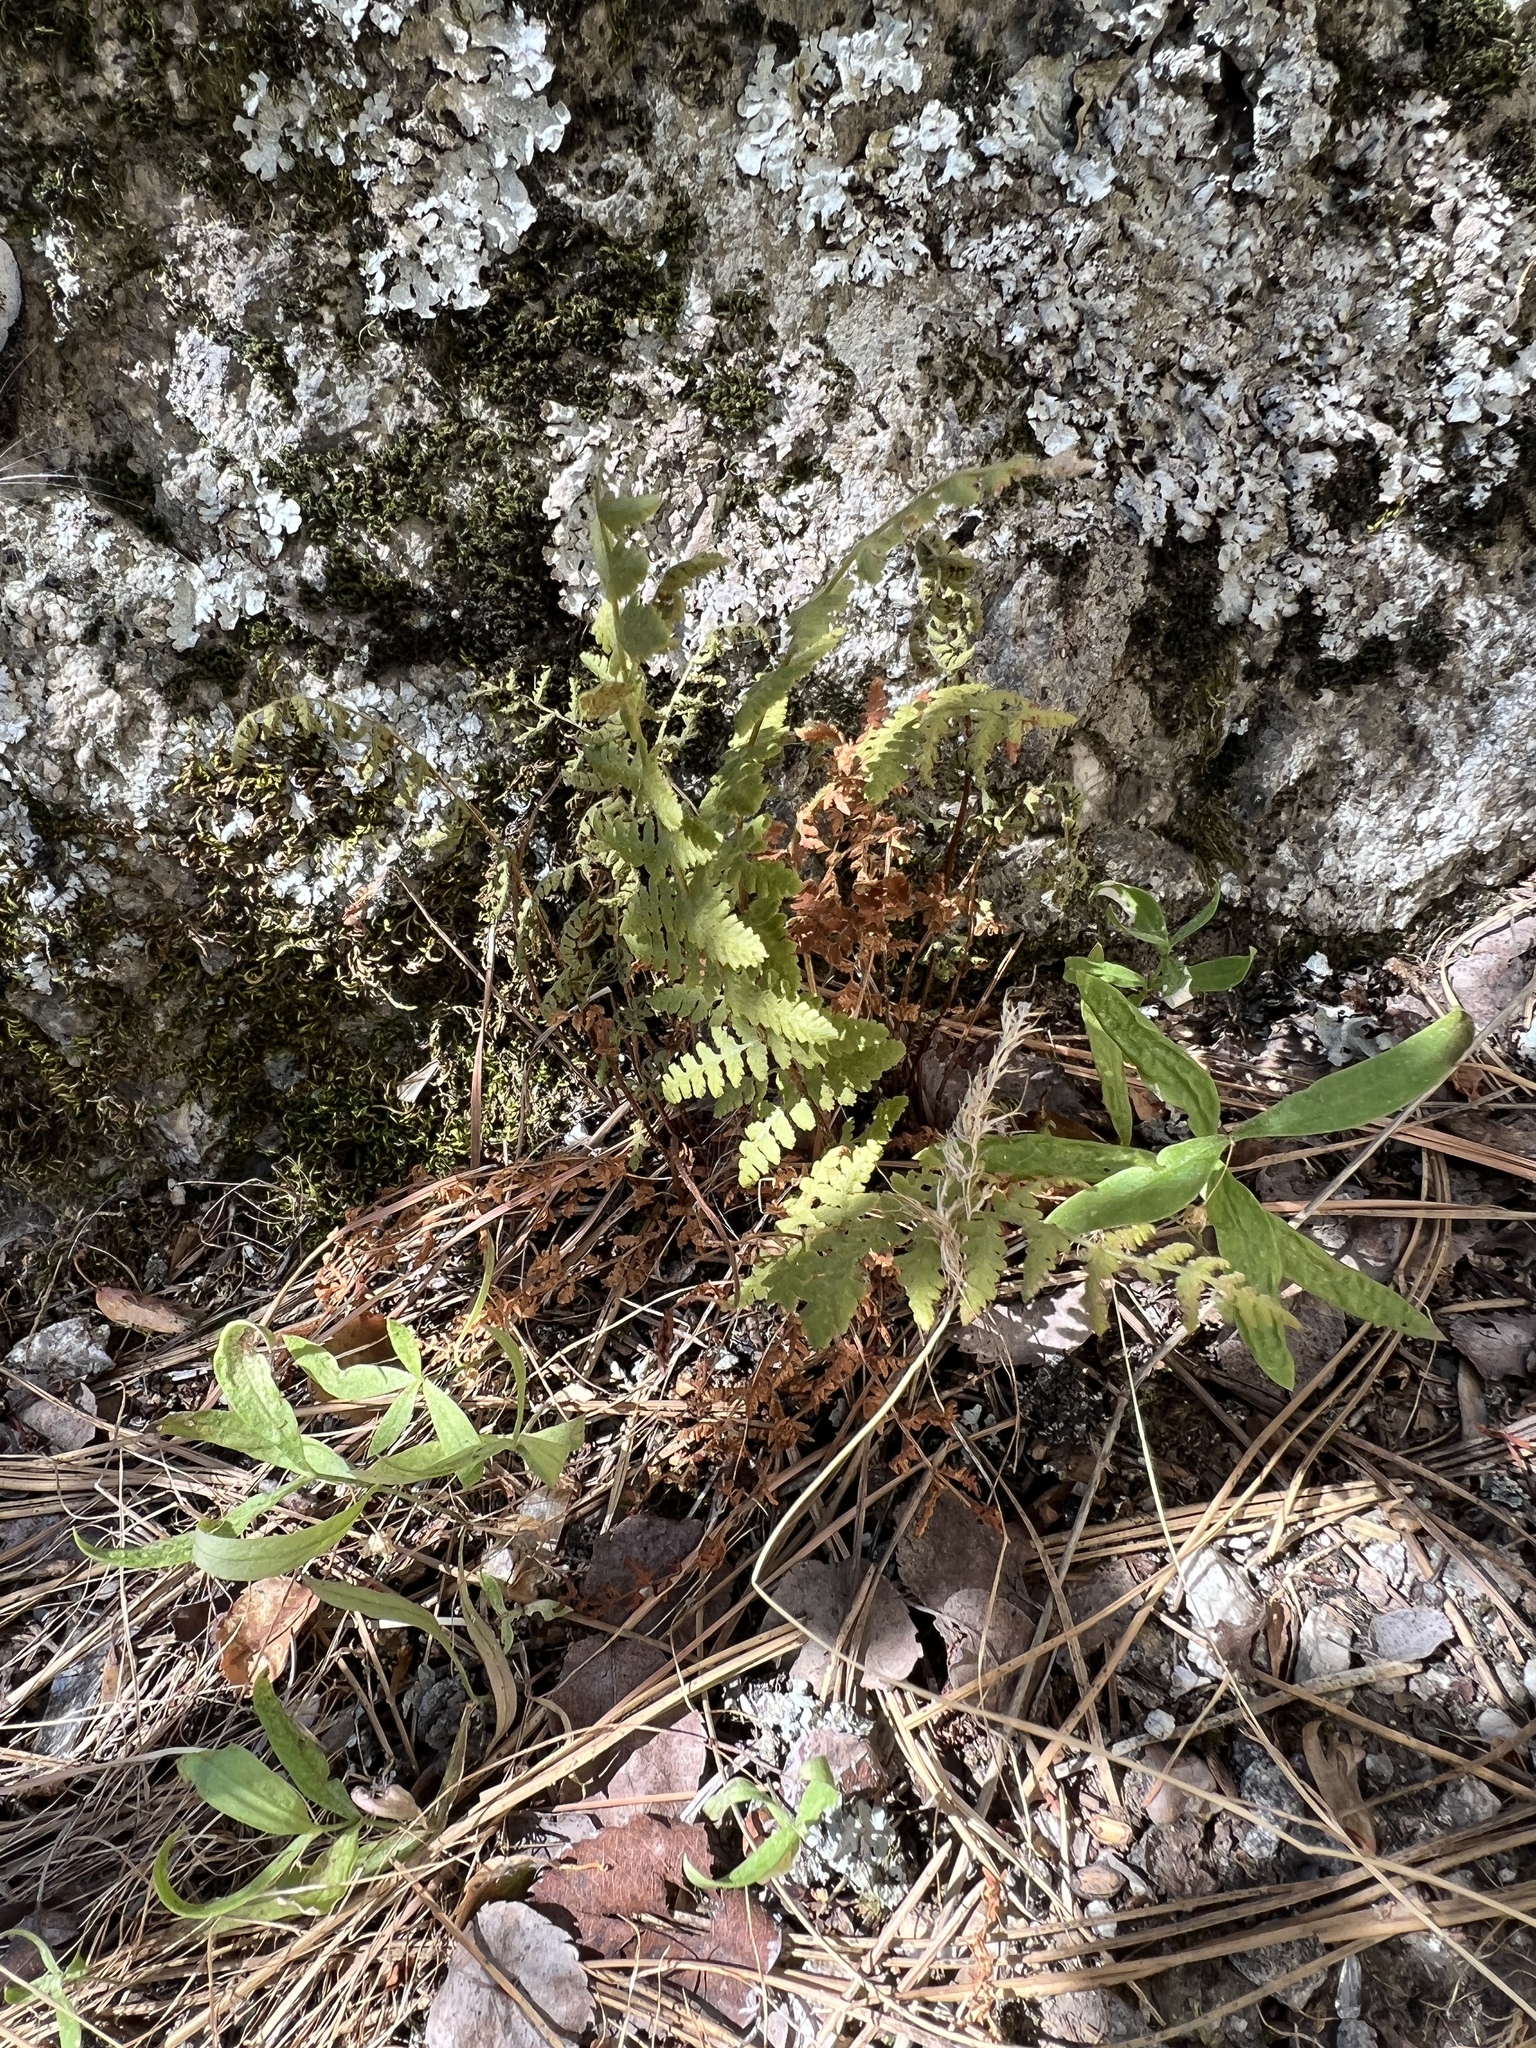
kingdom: Plantae
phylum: Tracheophyta
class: Polypodiopsida
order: Polypodiales
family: Woodsiaceae
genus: Physematium
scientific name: Physematium scopulinum
